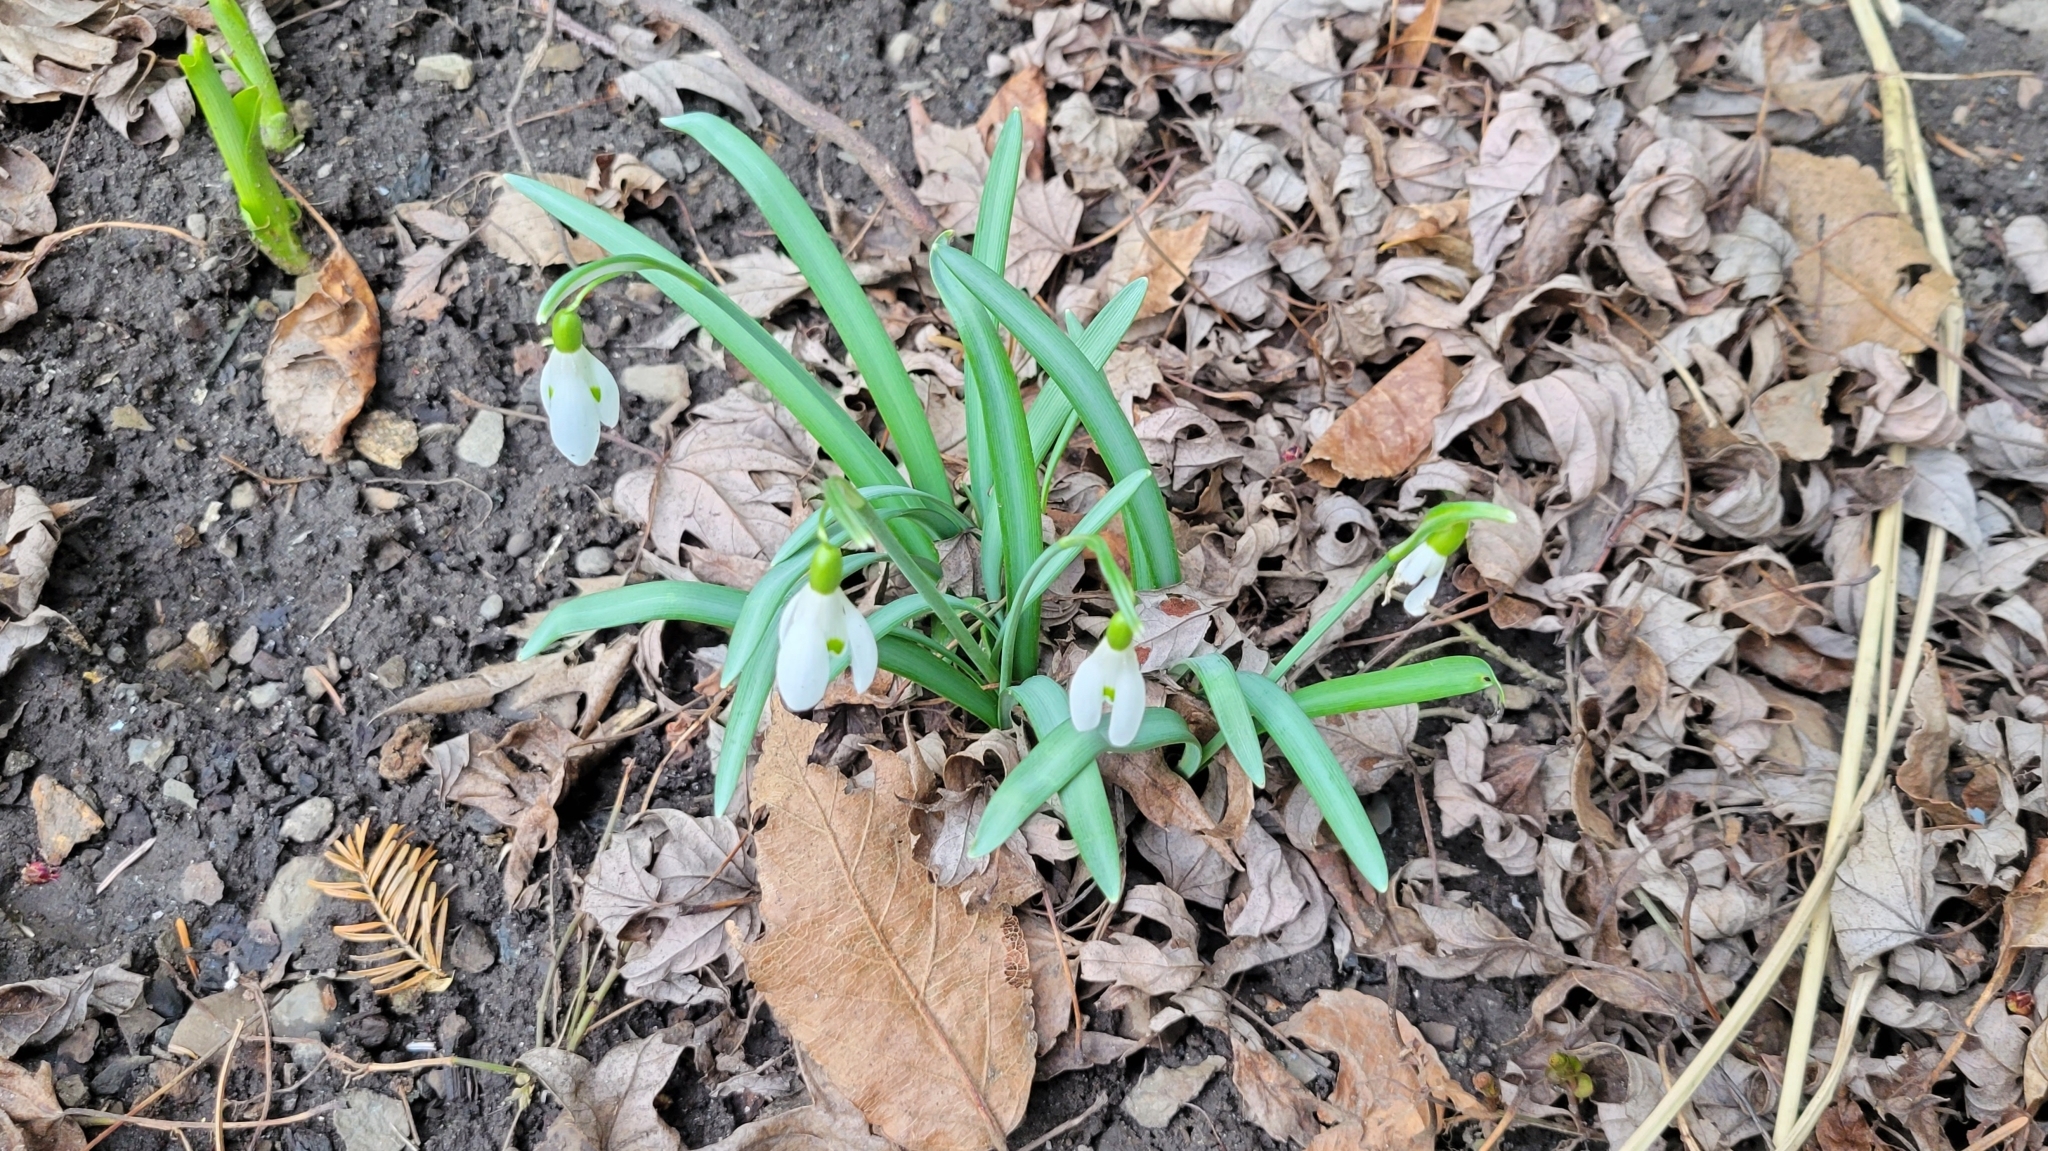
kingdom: Plantae
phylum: Tracheophyta
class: Liliopsida
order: Asparagales
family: Amaryllidaceae
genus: Galanthus
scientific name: Galanthus nivalis
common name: Snowdrop
